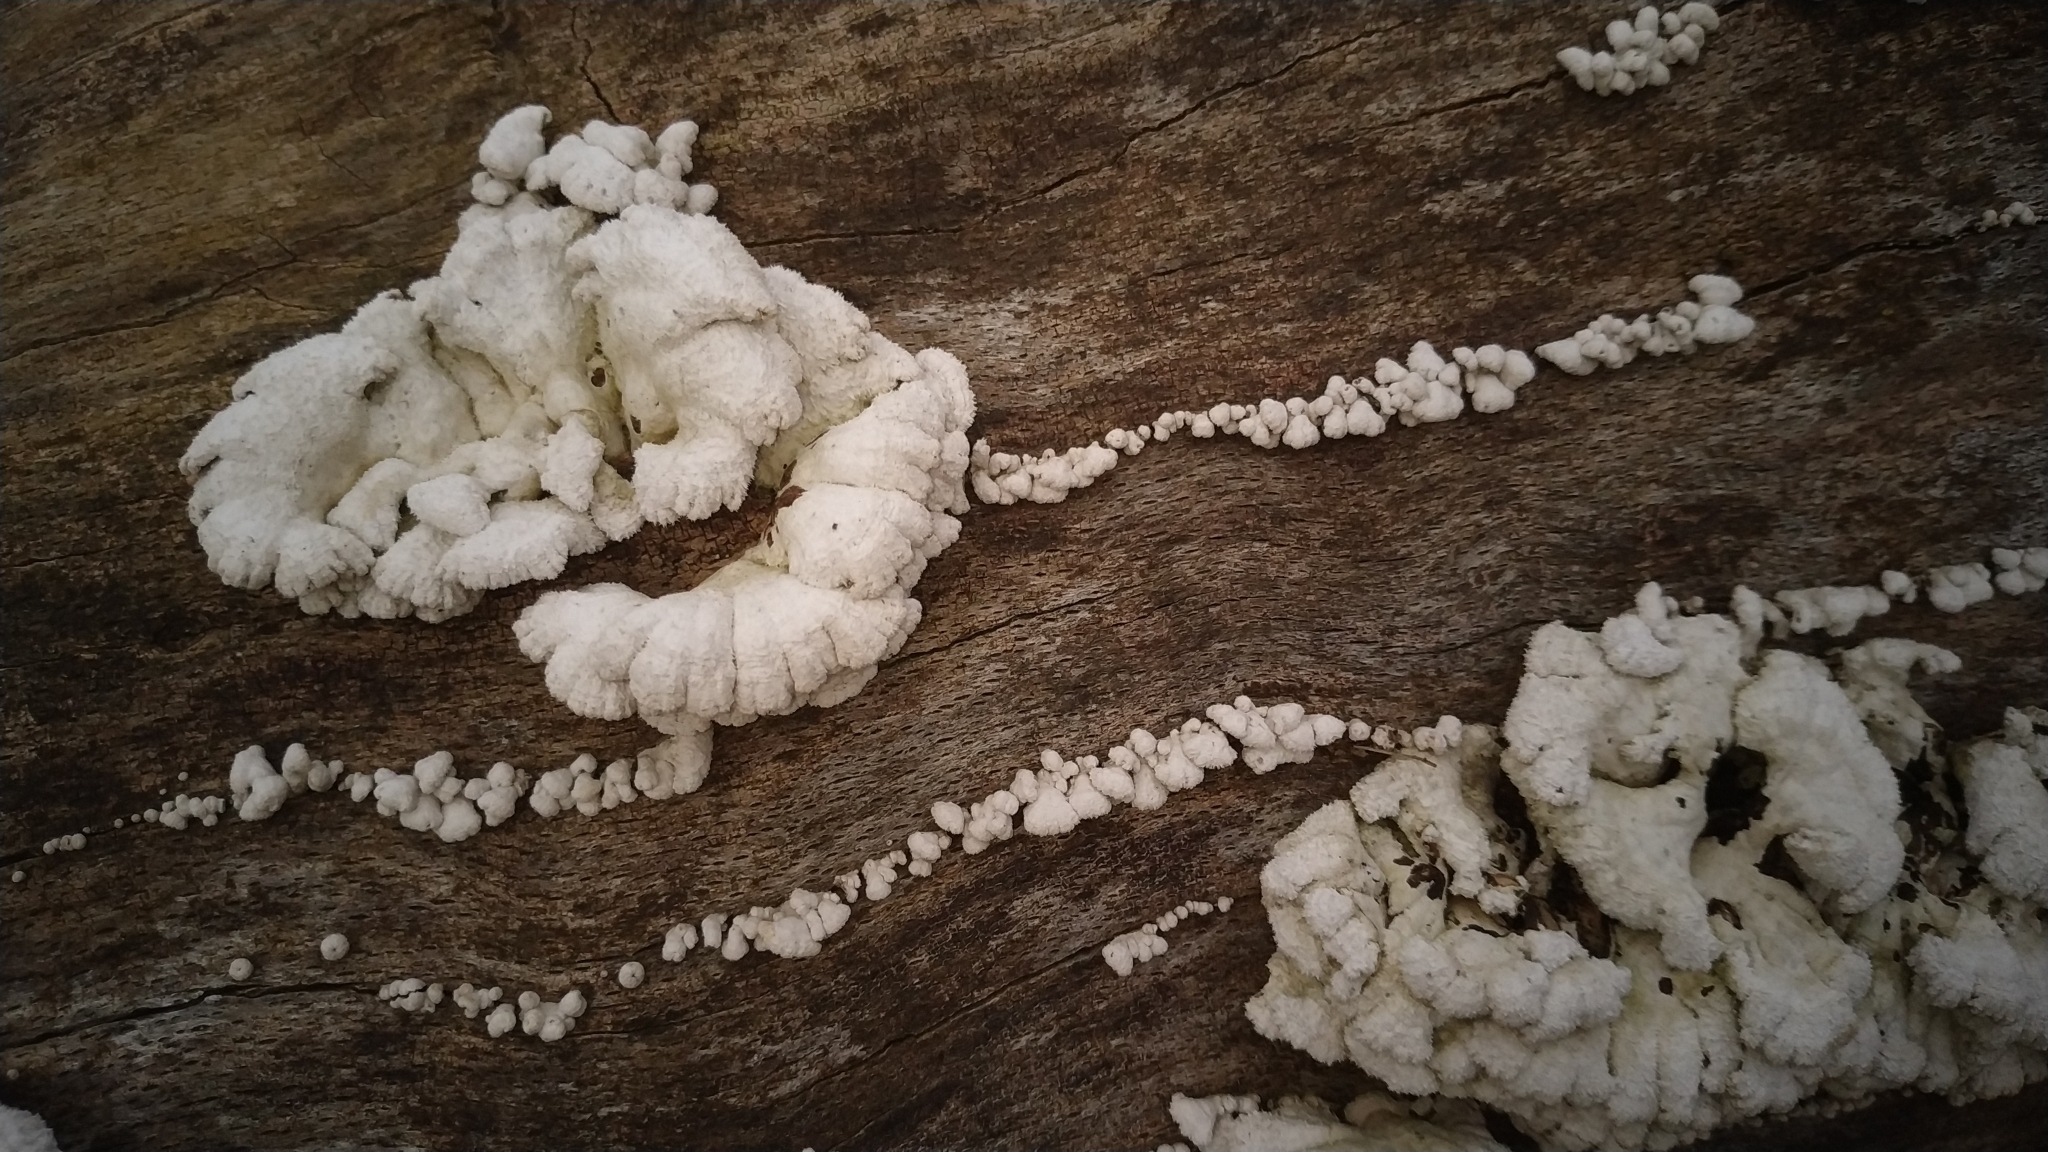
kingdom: Fungi
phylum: Basidiomycota
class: Agaricomycetes
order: Agaricales
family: Schizophyllaceae
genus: Schizophyllum
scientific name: Schizophyllum commune
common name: Common porecrust
